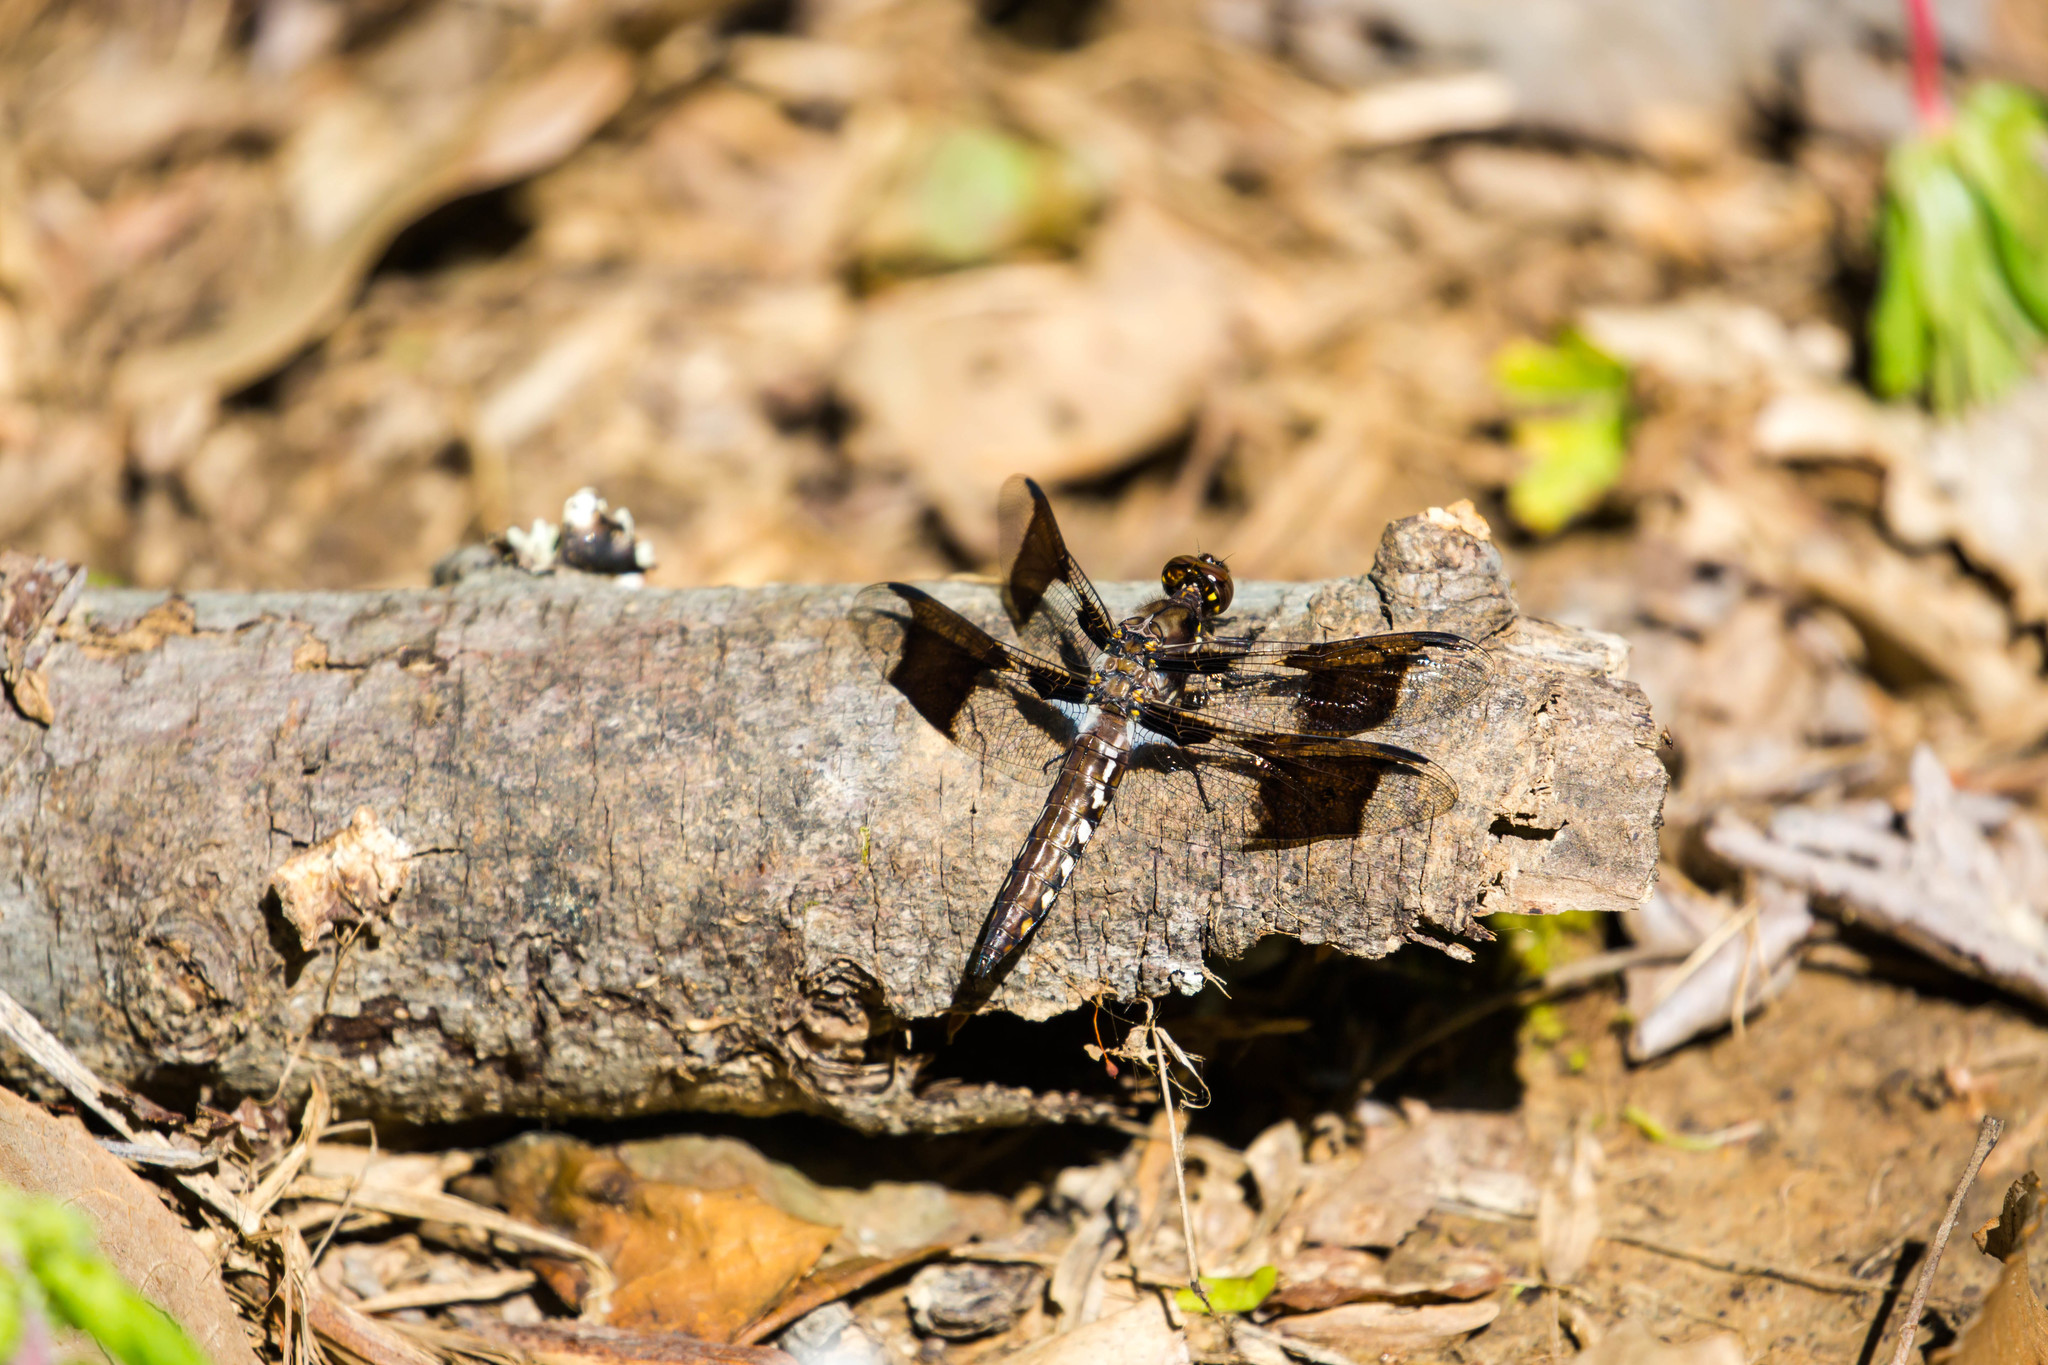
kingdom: Animalia
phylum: Arthropoda
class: Insecta
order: Odonata
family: Libellulidae
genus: Plathemis
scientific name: Plathemis lydia
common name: Common whitetail
